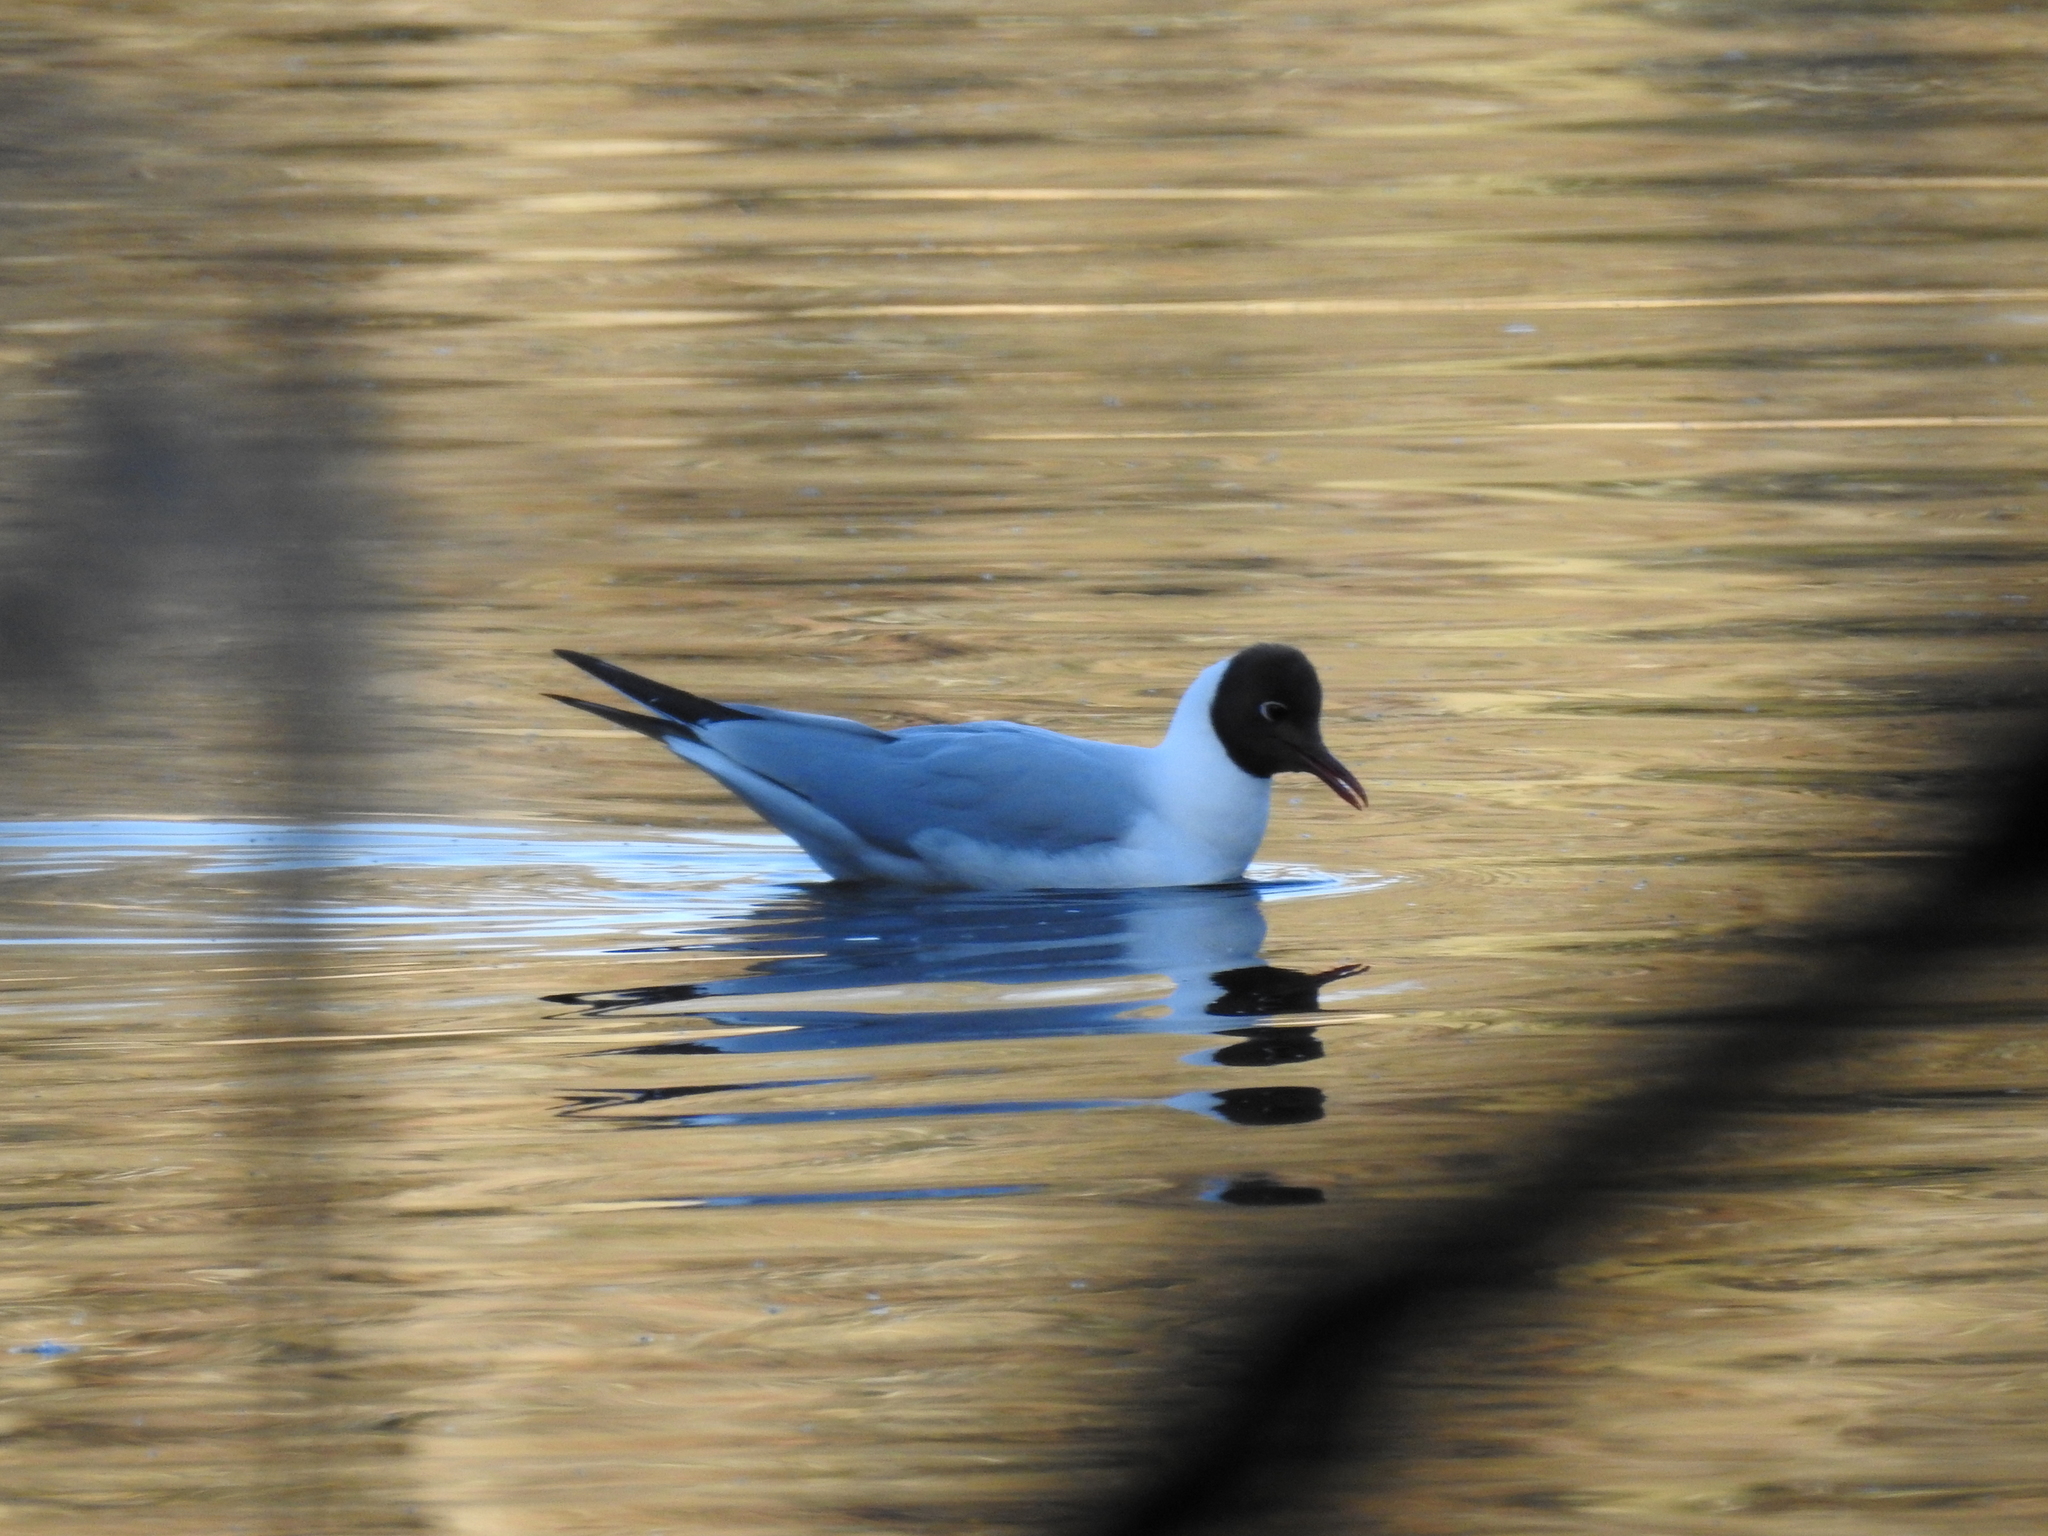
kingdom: Animalia
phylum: Chordata
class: Aves
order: Charadriiformes
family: Laridae
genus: Chroicocephalus
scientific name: Chroicocephalus ridibundus
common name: Black-headed gull
